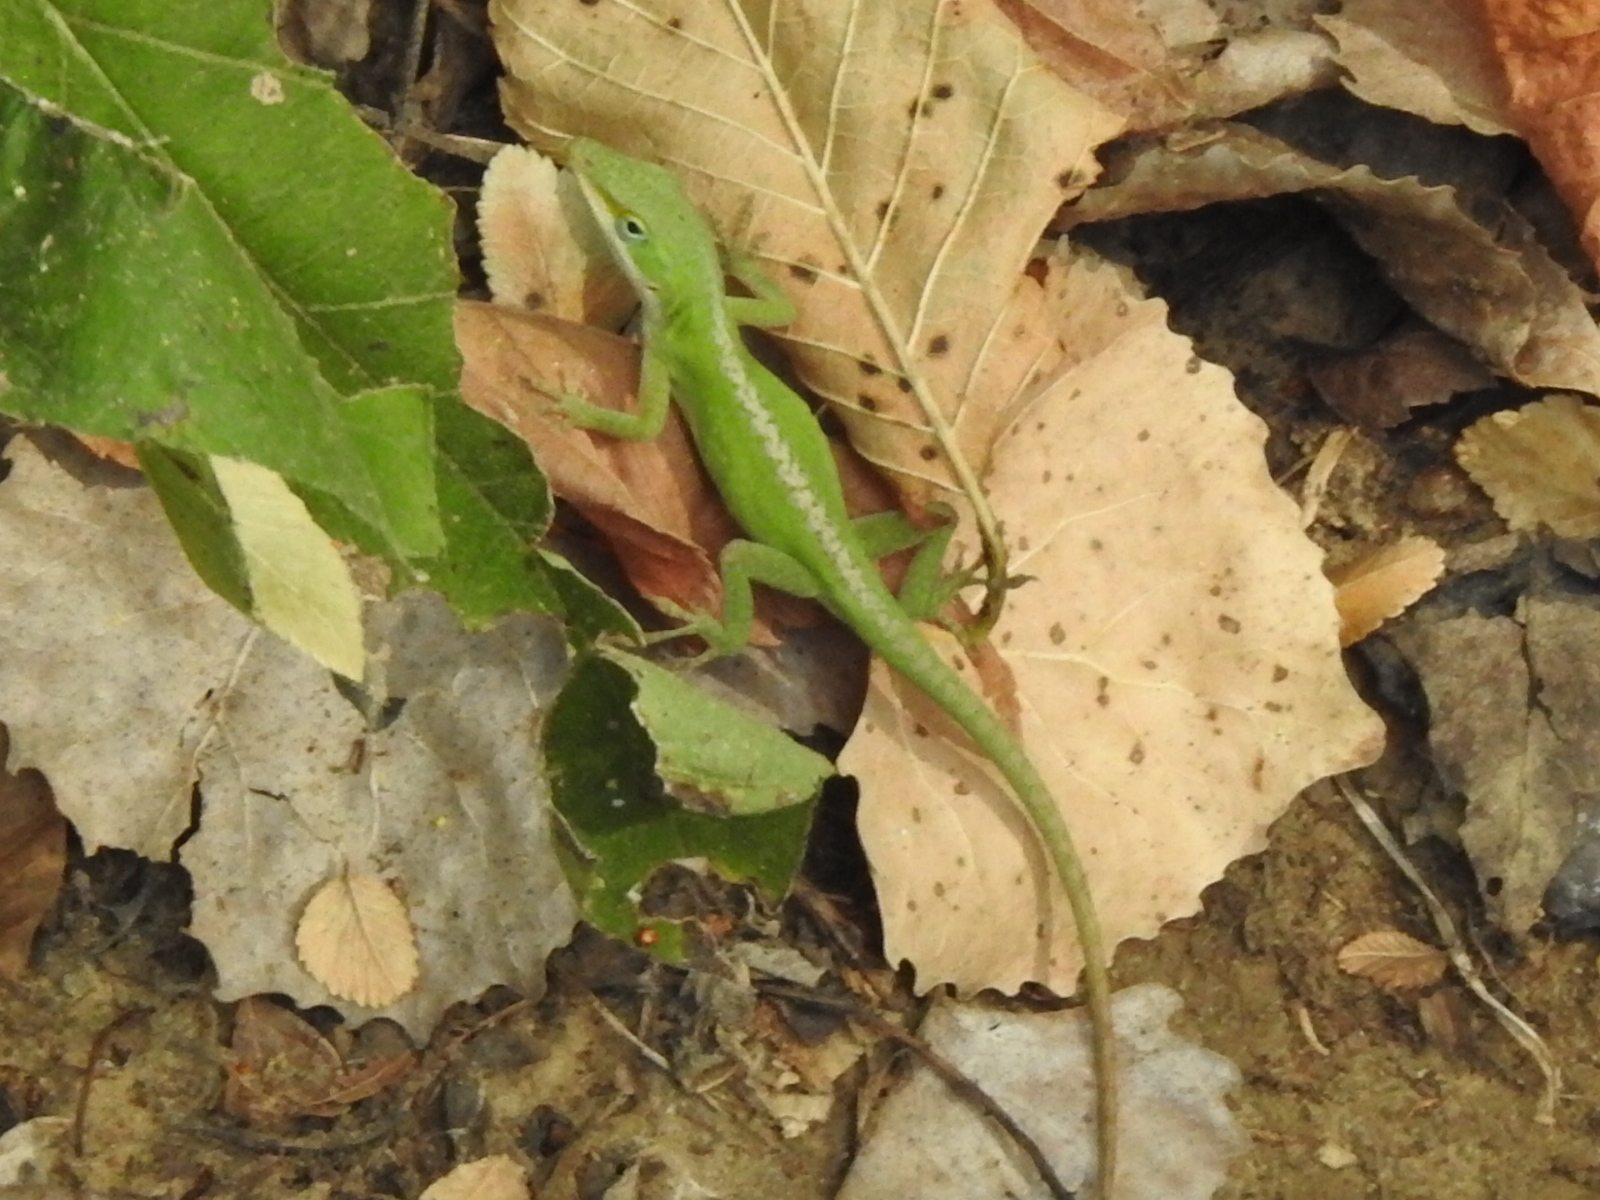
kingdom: Animalia
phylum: Chordata
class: Squamata
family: Dactyloidae
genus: Anolis
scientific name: Anolis carolinensis
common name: Green anole
